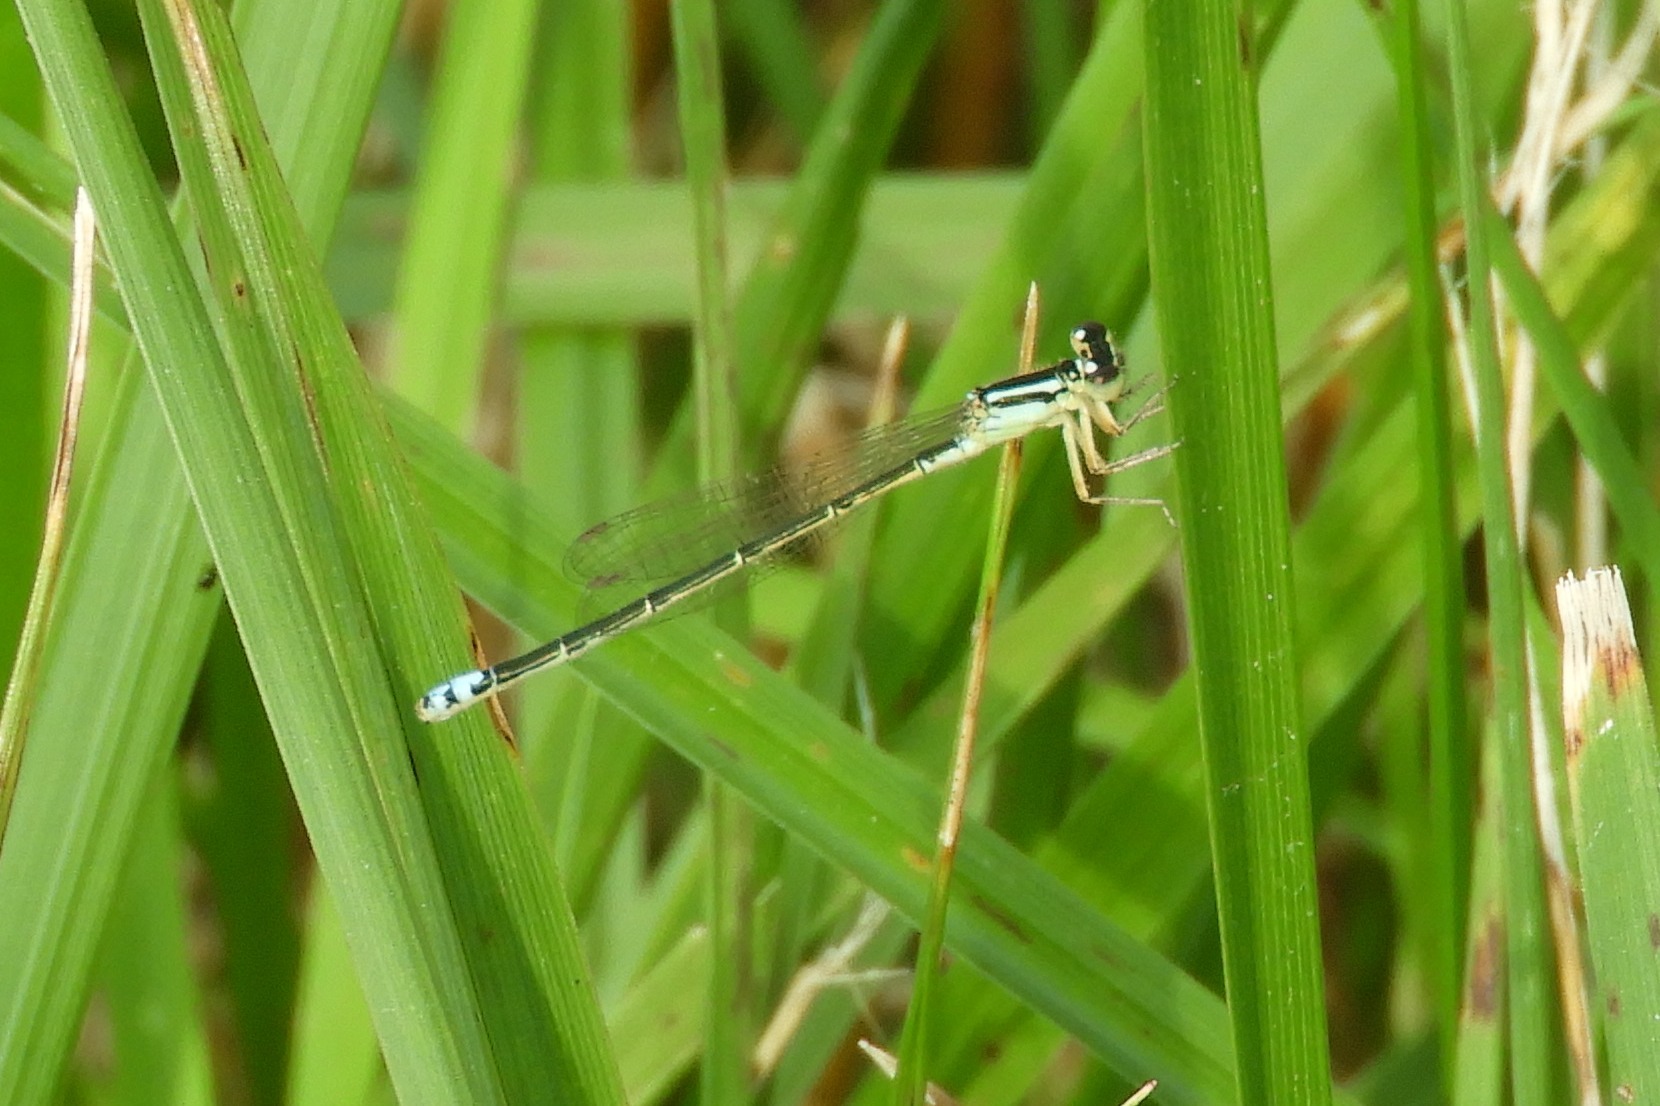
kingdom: Animalia
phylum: Arthropoda
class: Insecta
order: Odonata
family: Coenagrionidae
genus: Ischnura
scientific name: Ischnura verticalis
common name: Eastern forktail
